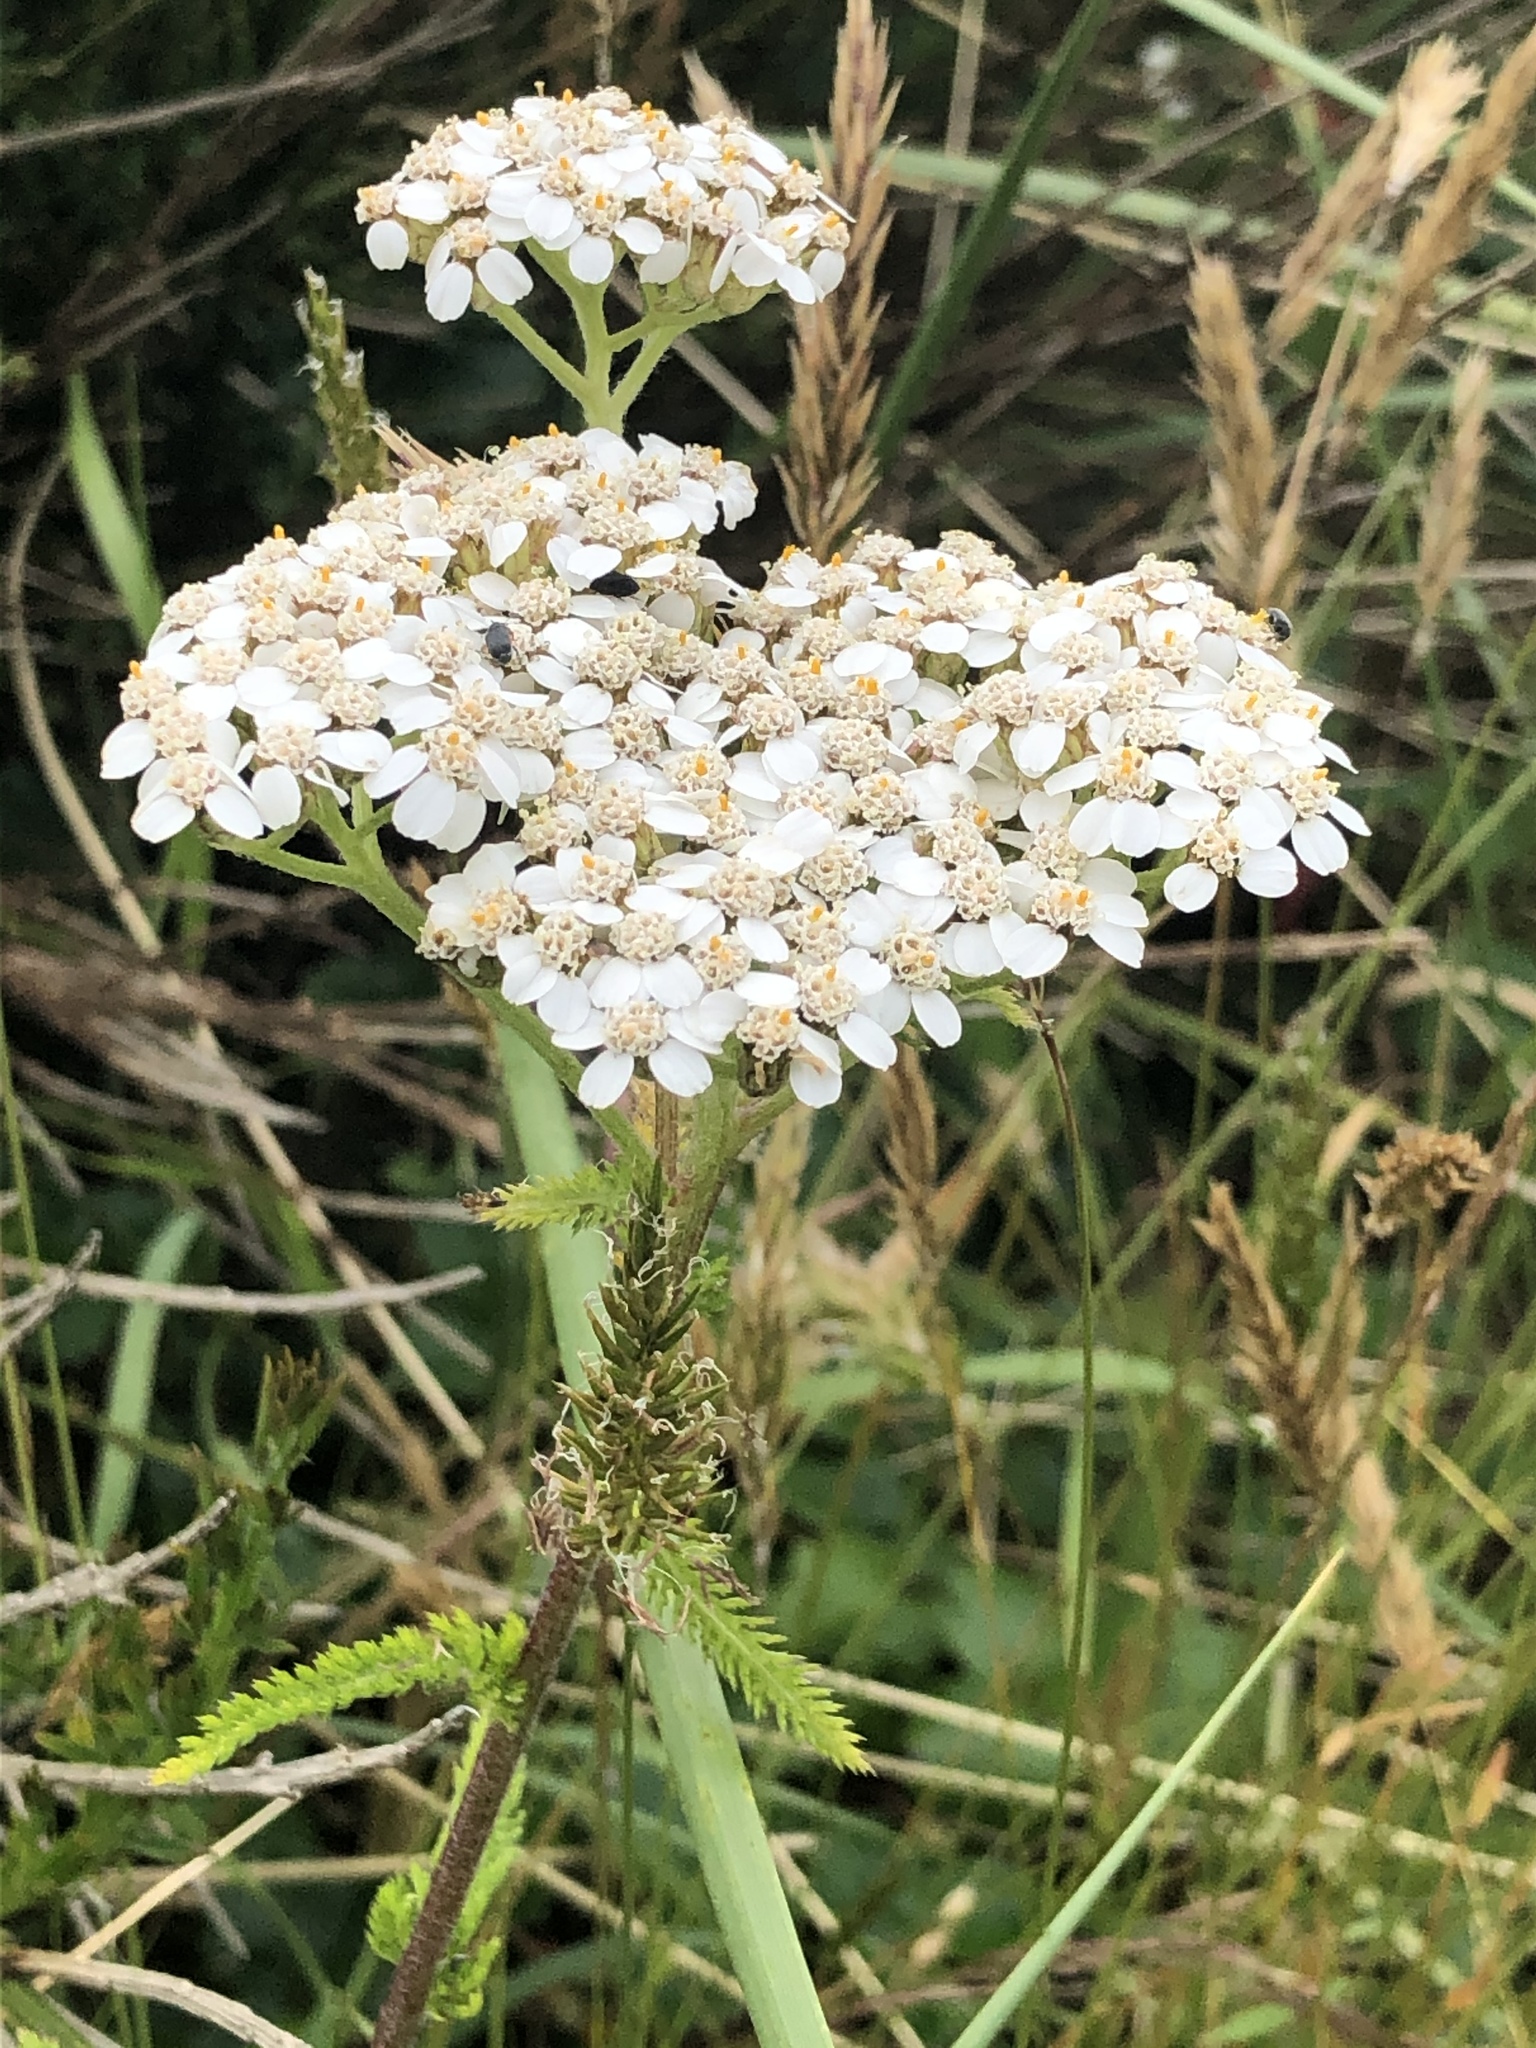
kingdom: Plantae
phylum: Tracheophyta
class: Magnoliopsida
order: Asterales
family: Asteraceae
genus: Achillea
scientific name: Achillea millefolium
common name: Yarrow
